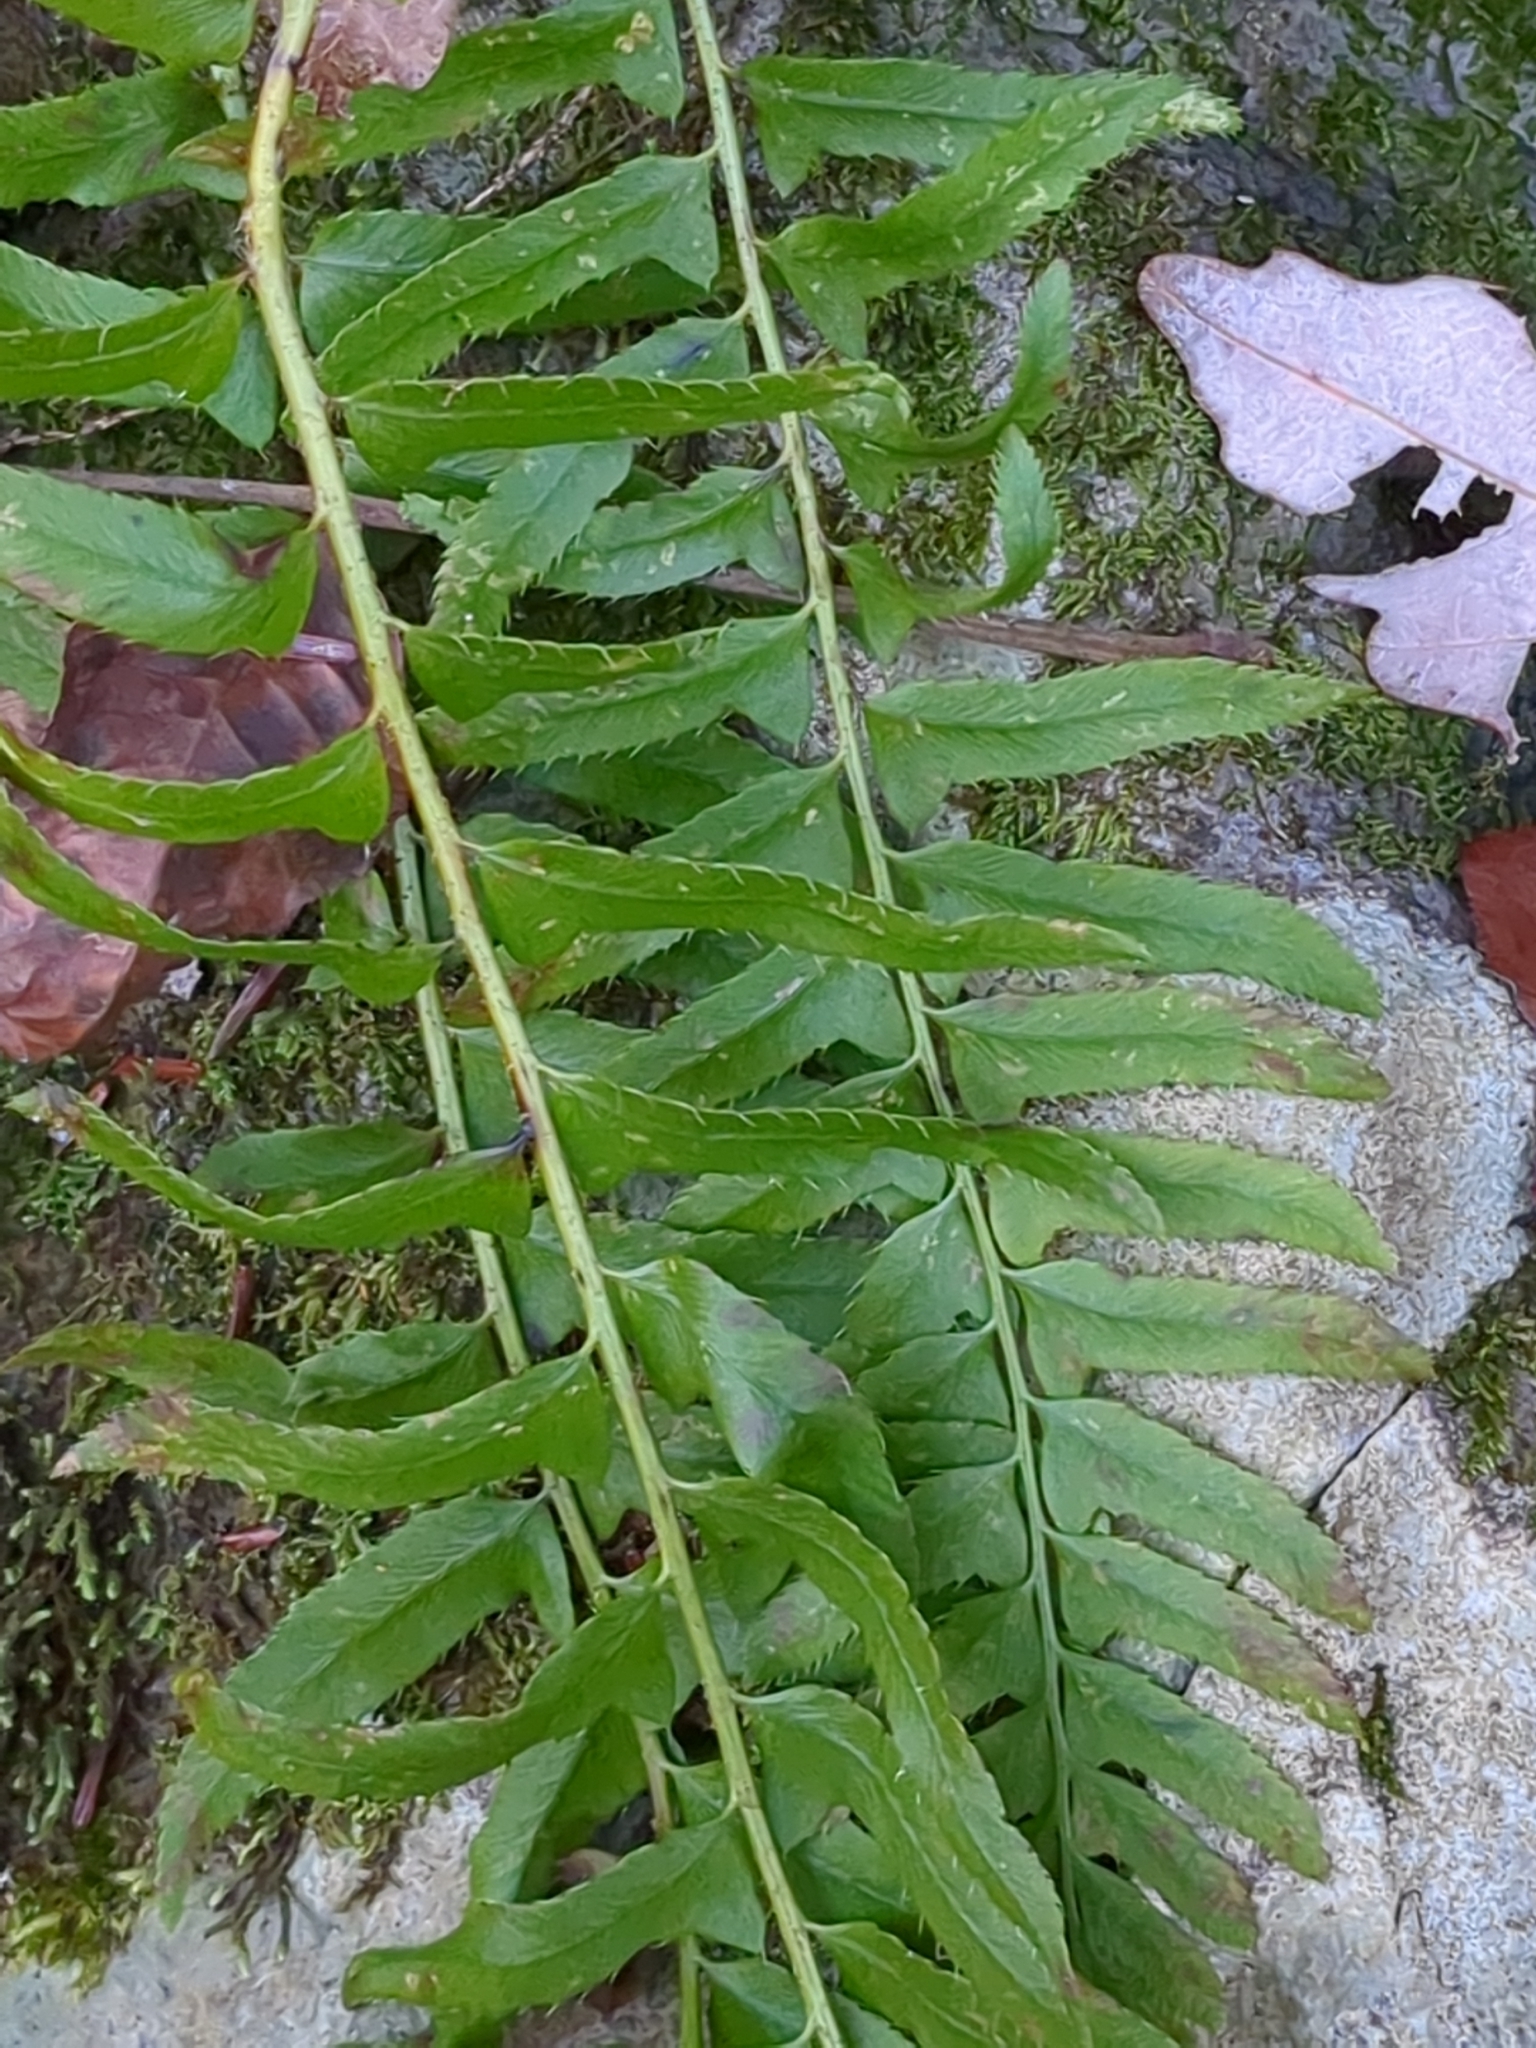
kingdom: Plantae
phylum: Tracheophyta
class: Polypodiopsida
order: Polypodiales
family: Dryopteridaceae
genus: Polystichum
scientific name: Polystichum acrostichoides
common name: Christmas fern
